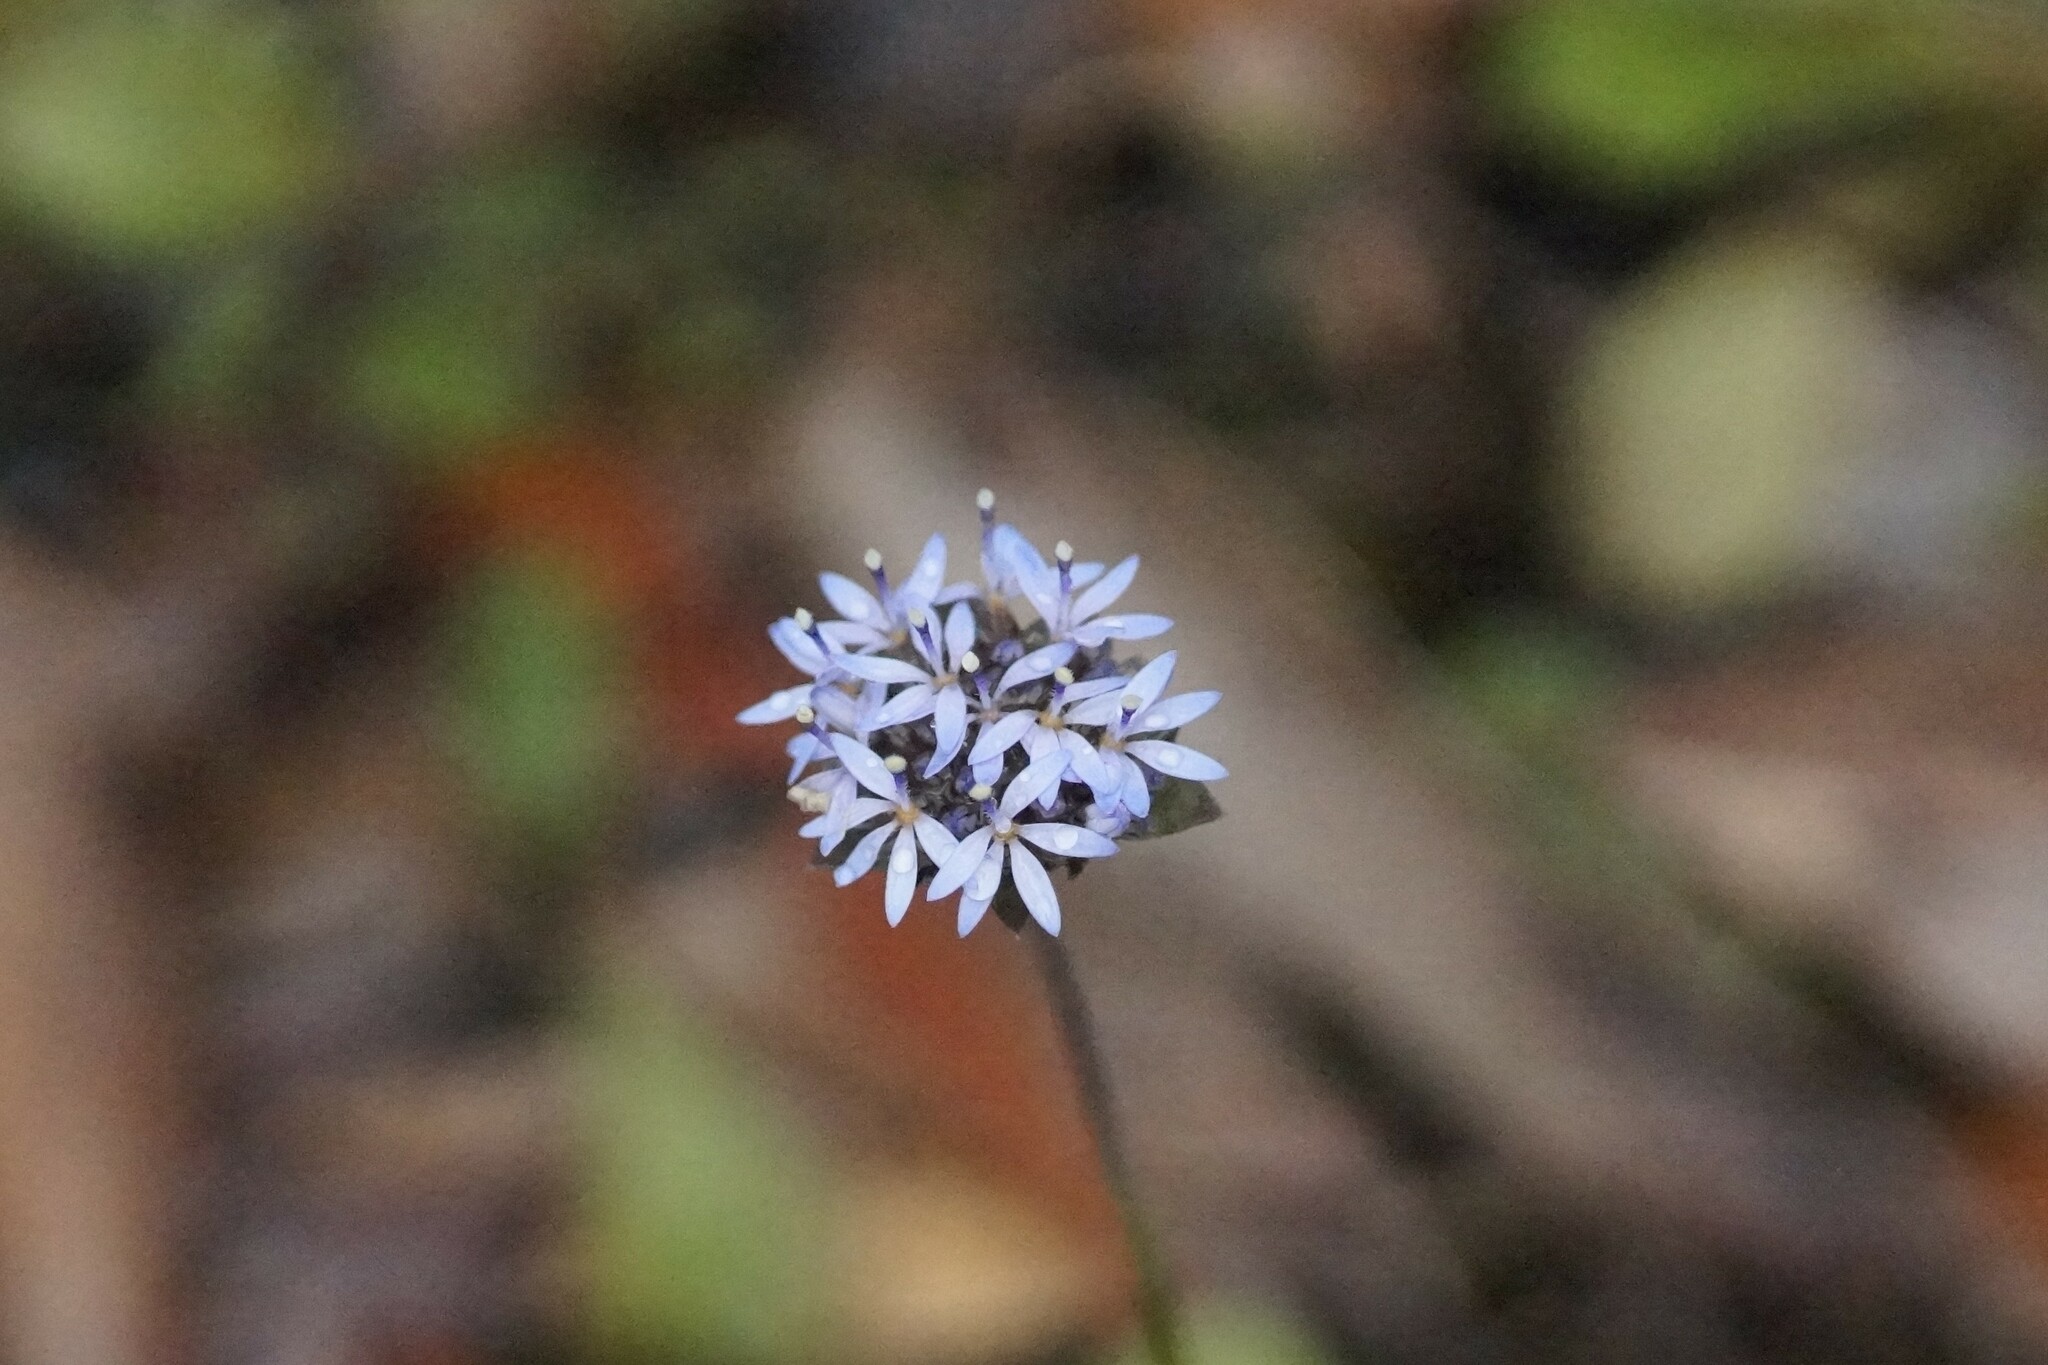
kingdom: Plantae
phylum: Tracheophyta
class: Magnoliopsida
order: Asterales
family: Goodeniaceae
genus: Brunonia
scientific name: Brunonia australis
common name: Blue pincushion
